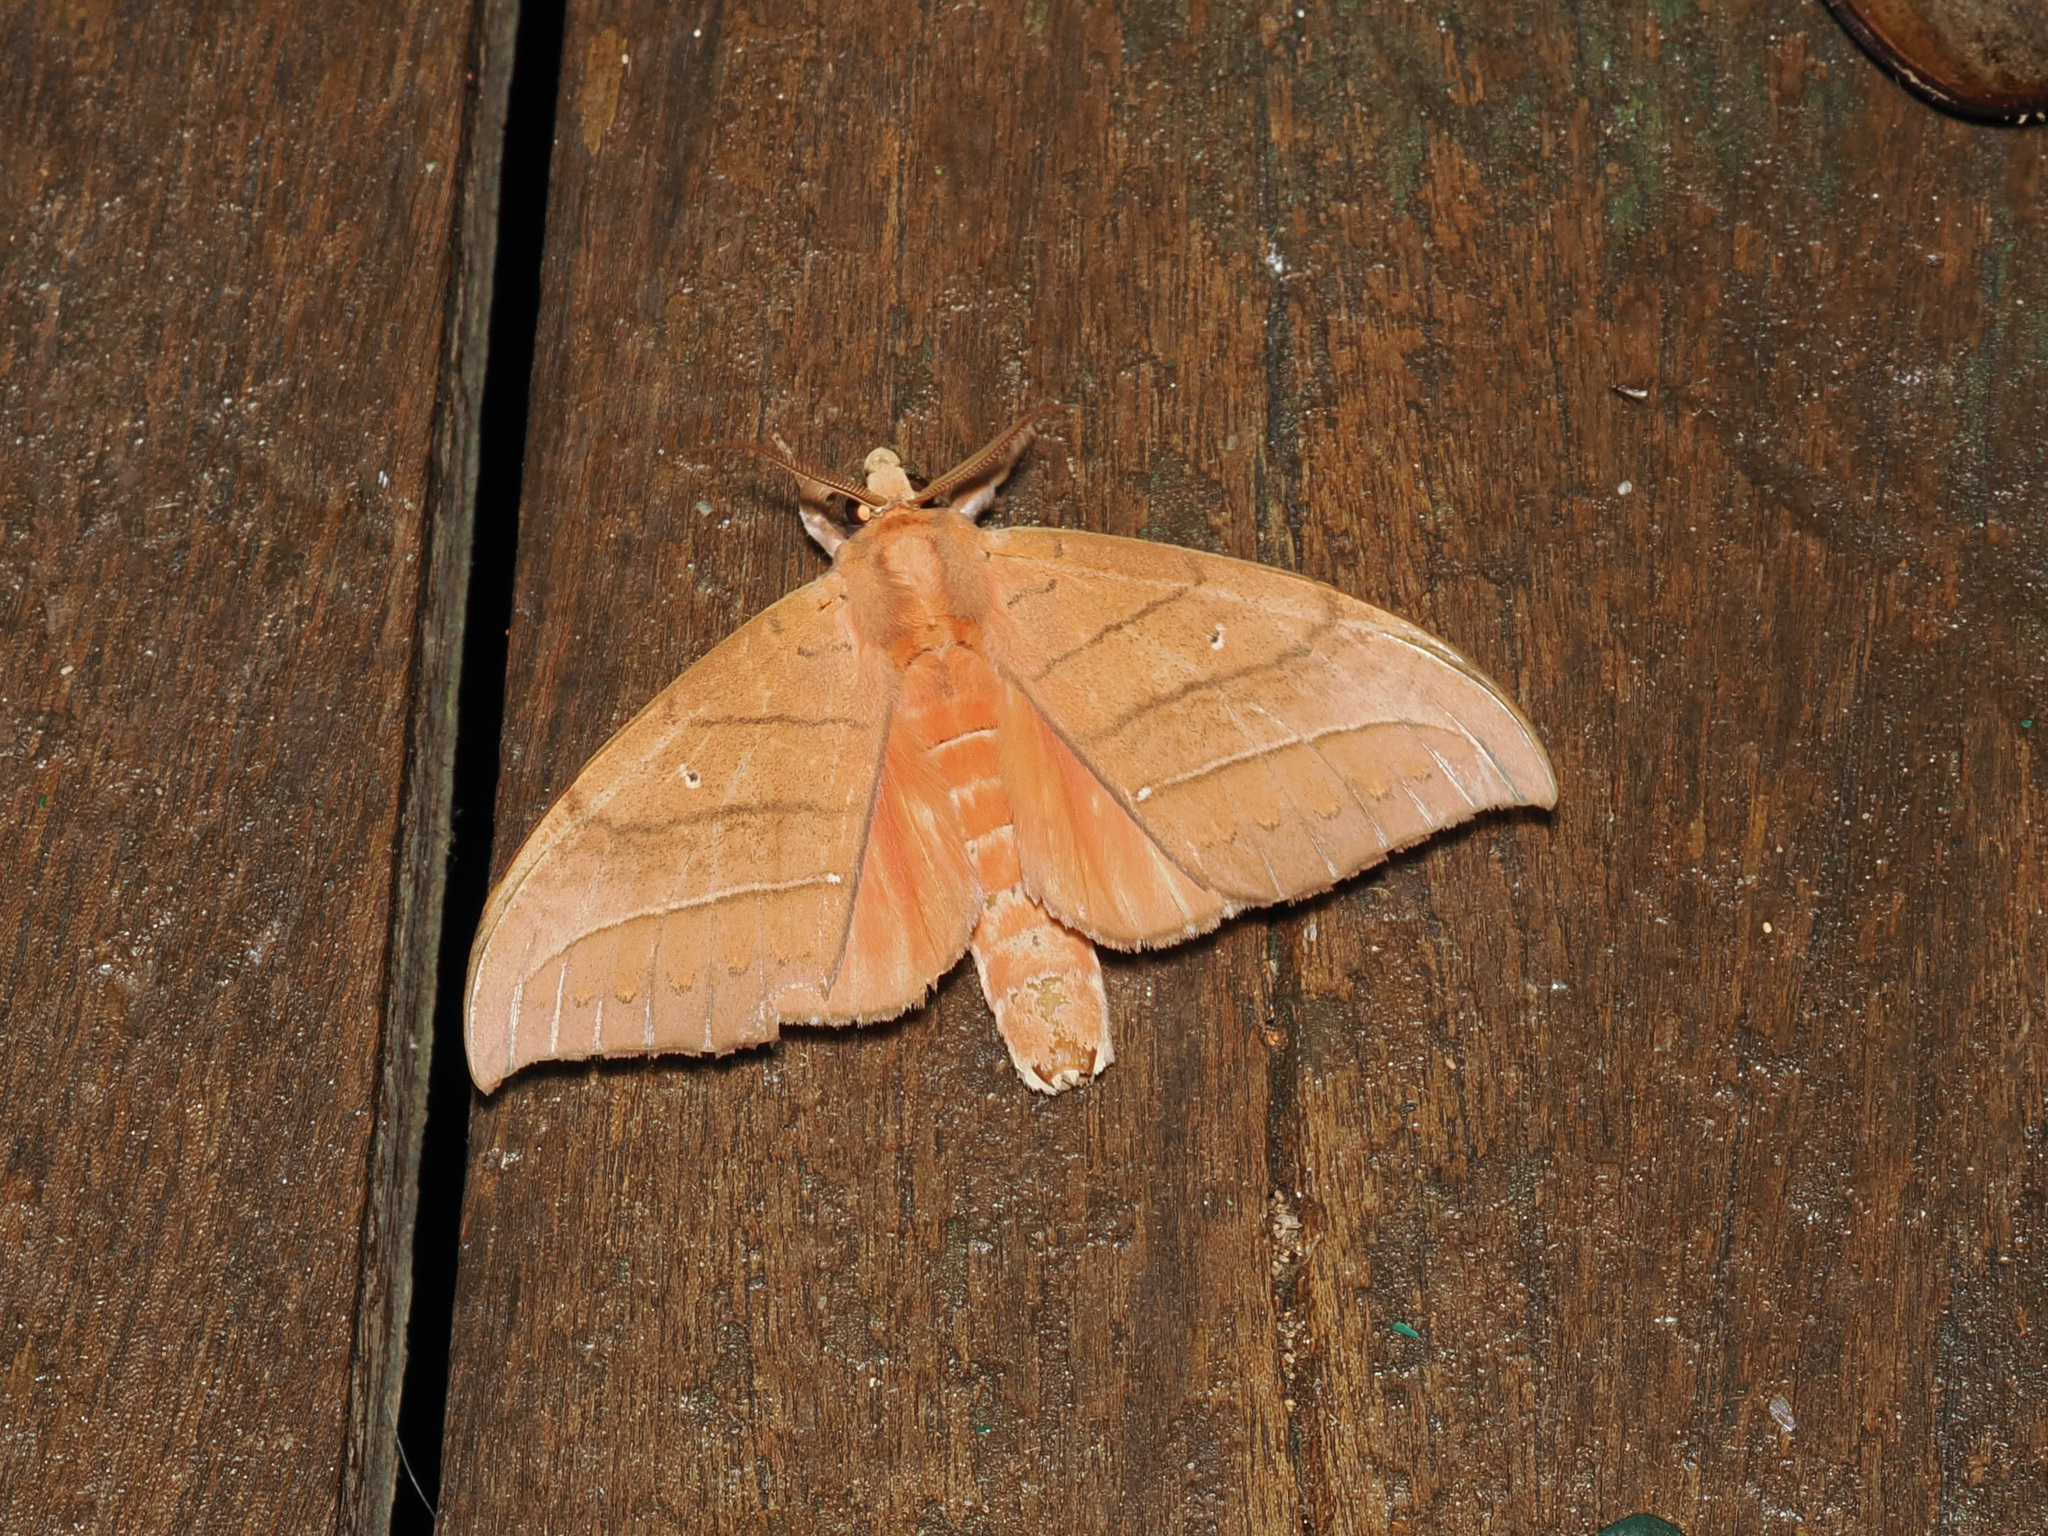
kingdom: Animalia
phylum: Arthropoda
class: Insecta
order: Lepidoptera
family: Notodontidae
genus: Gangarides
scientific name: Gangarides rosea
